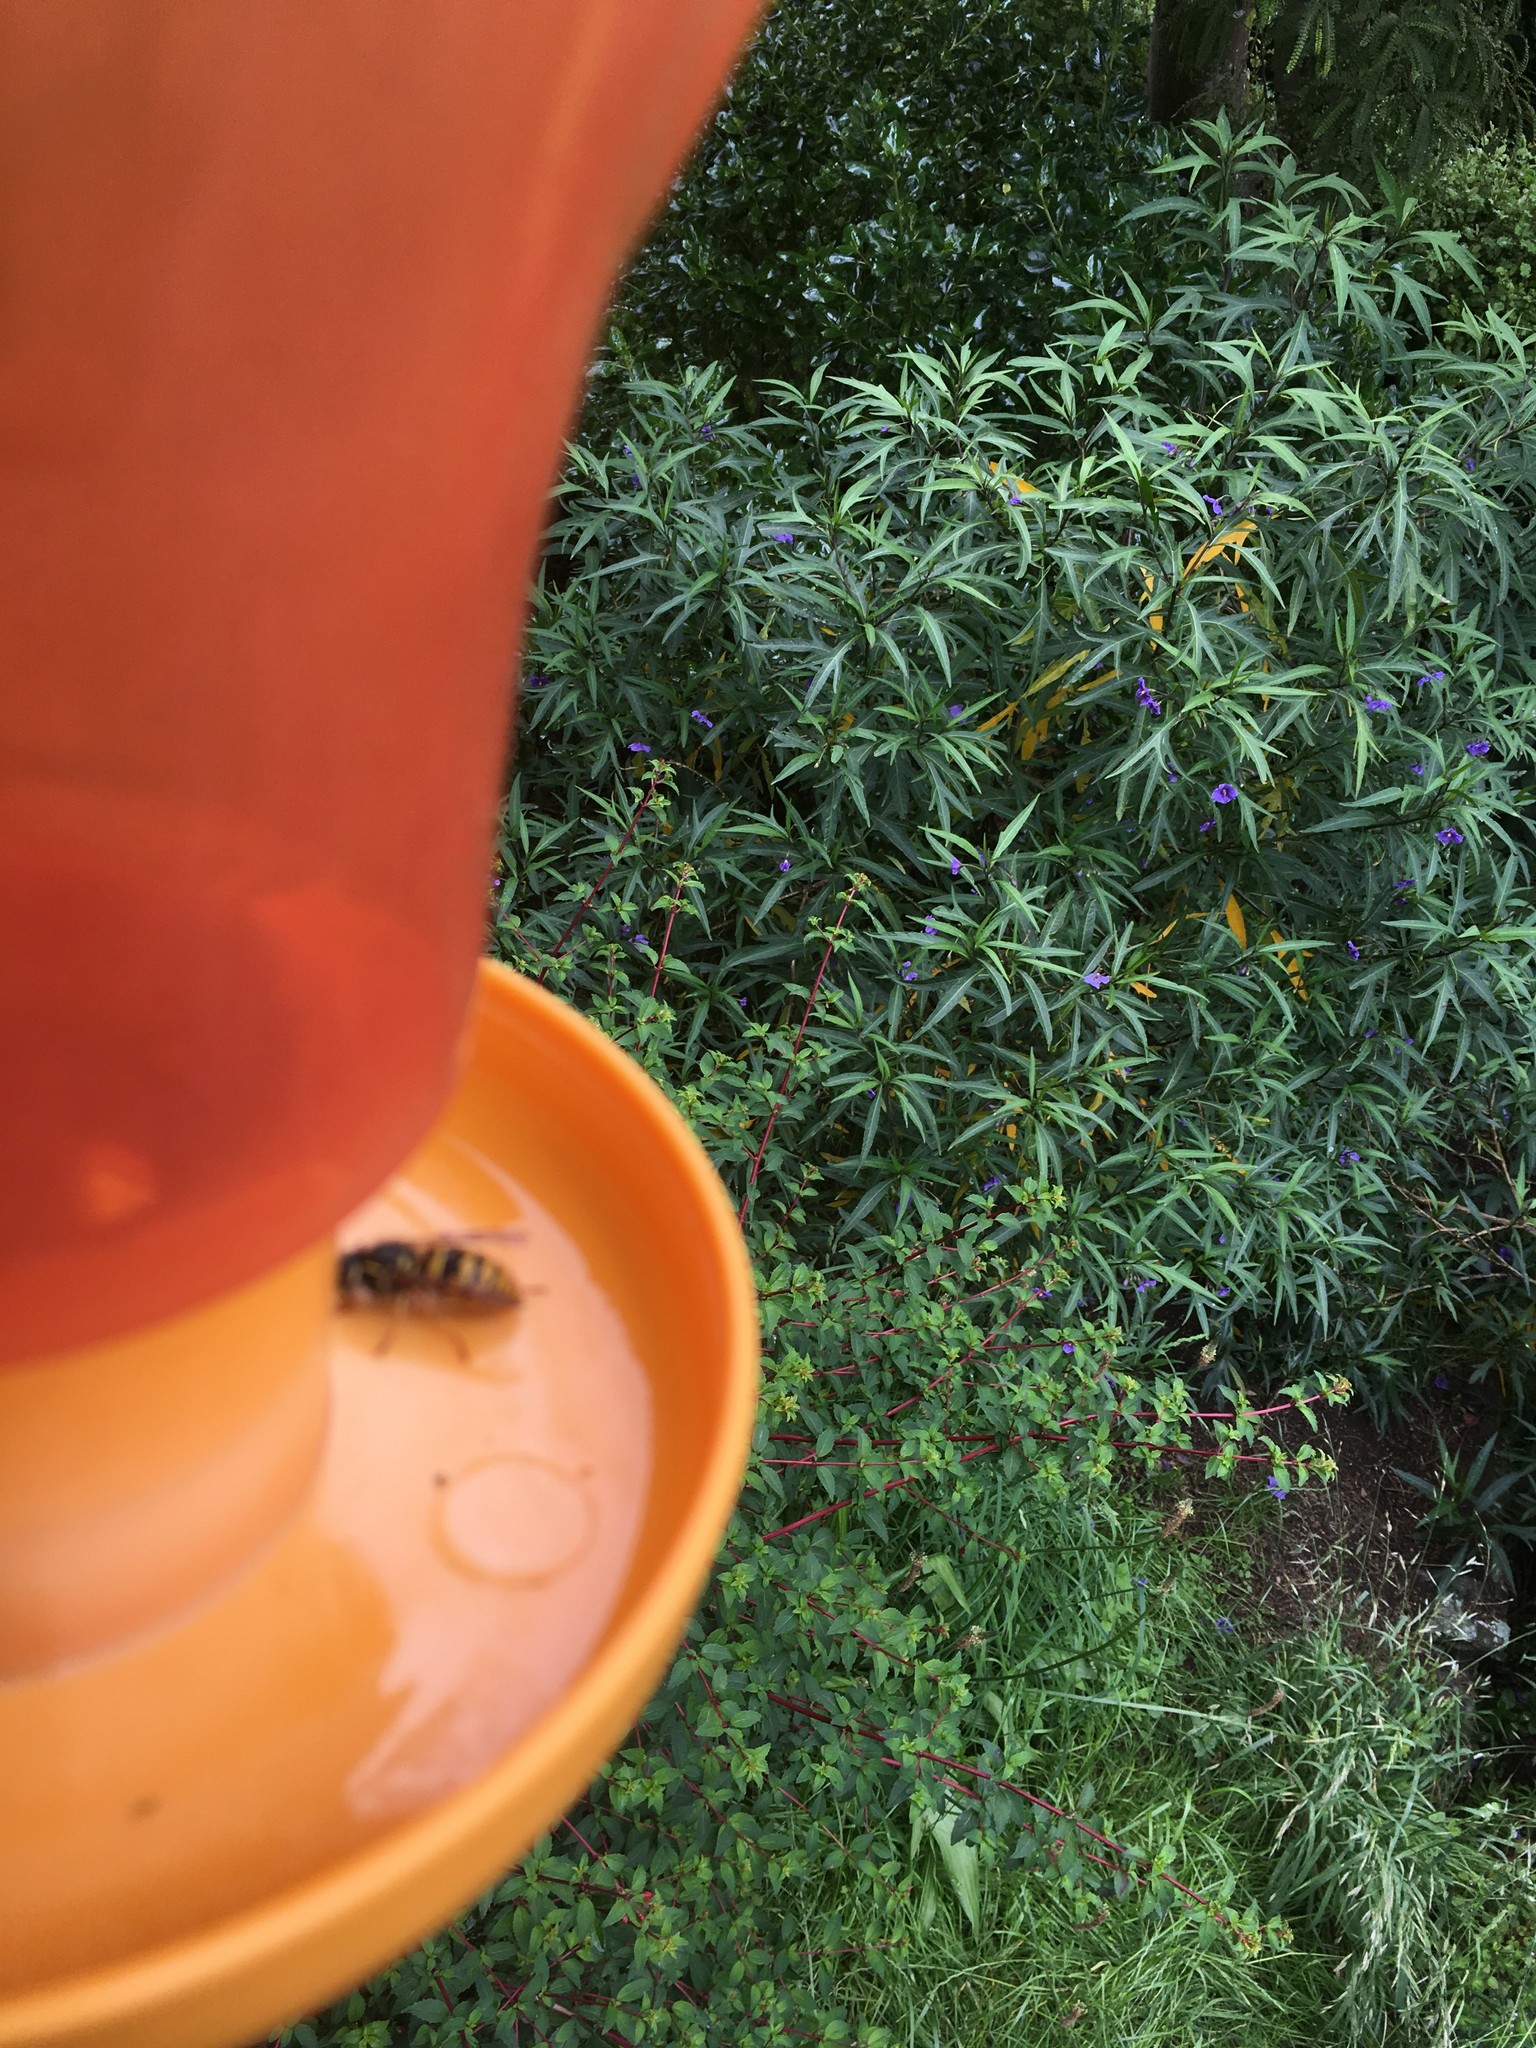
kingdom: Animalia
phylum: Arthropoda
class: Insecta
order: Hymenoptera
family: Vespidae
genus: Vespula
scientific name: Vespula
